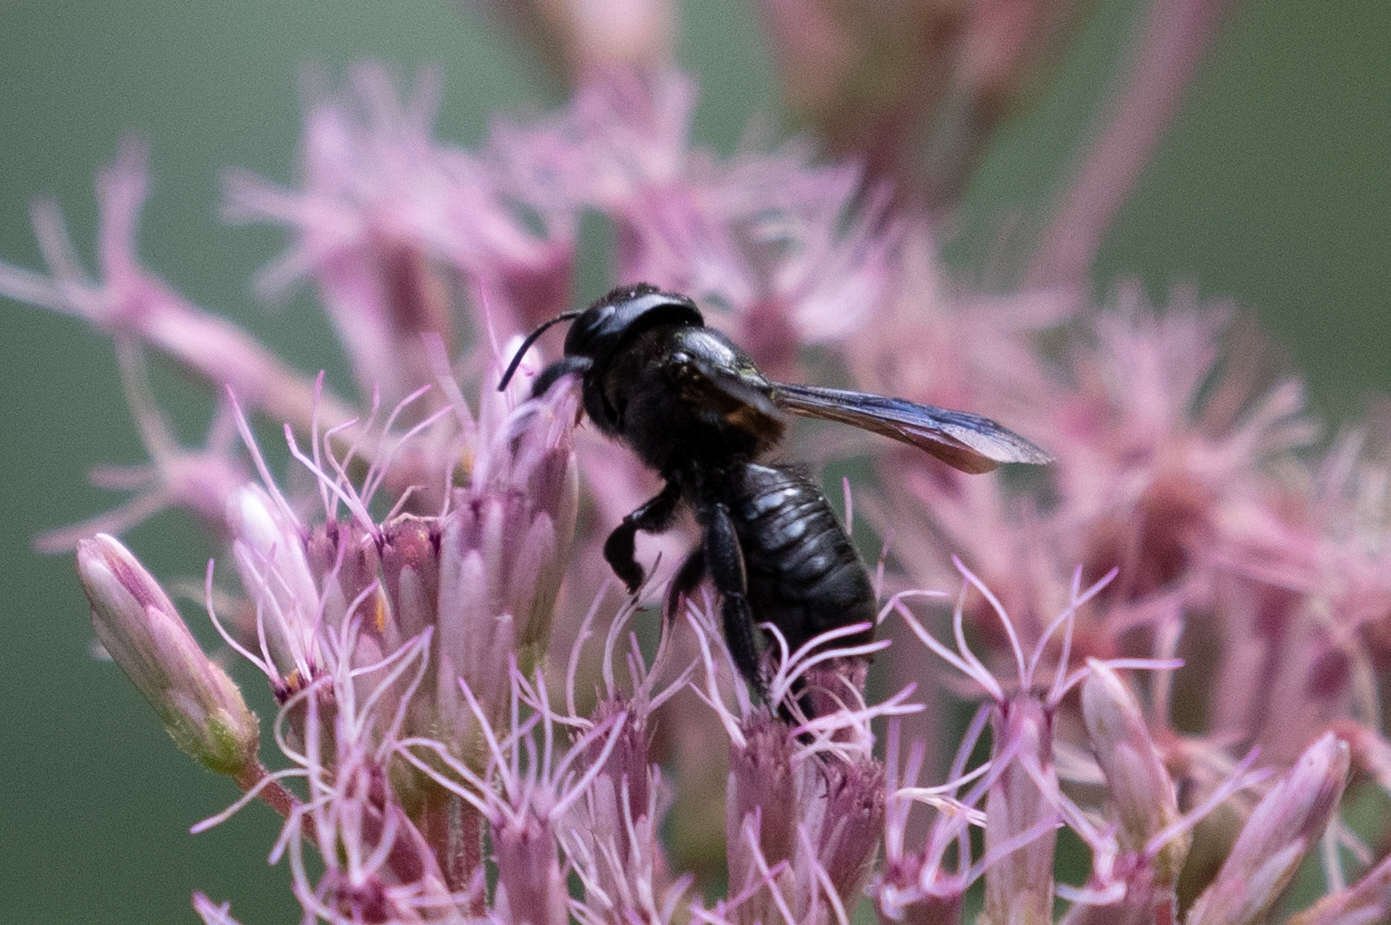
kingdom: Animalia
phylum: Arthropoda
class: Insecta
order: Hymenoptera
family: Megachilidae
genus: Megachile
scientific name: Megachile xylocopoides
